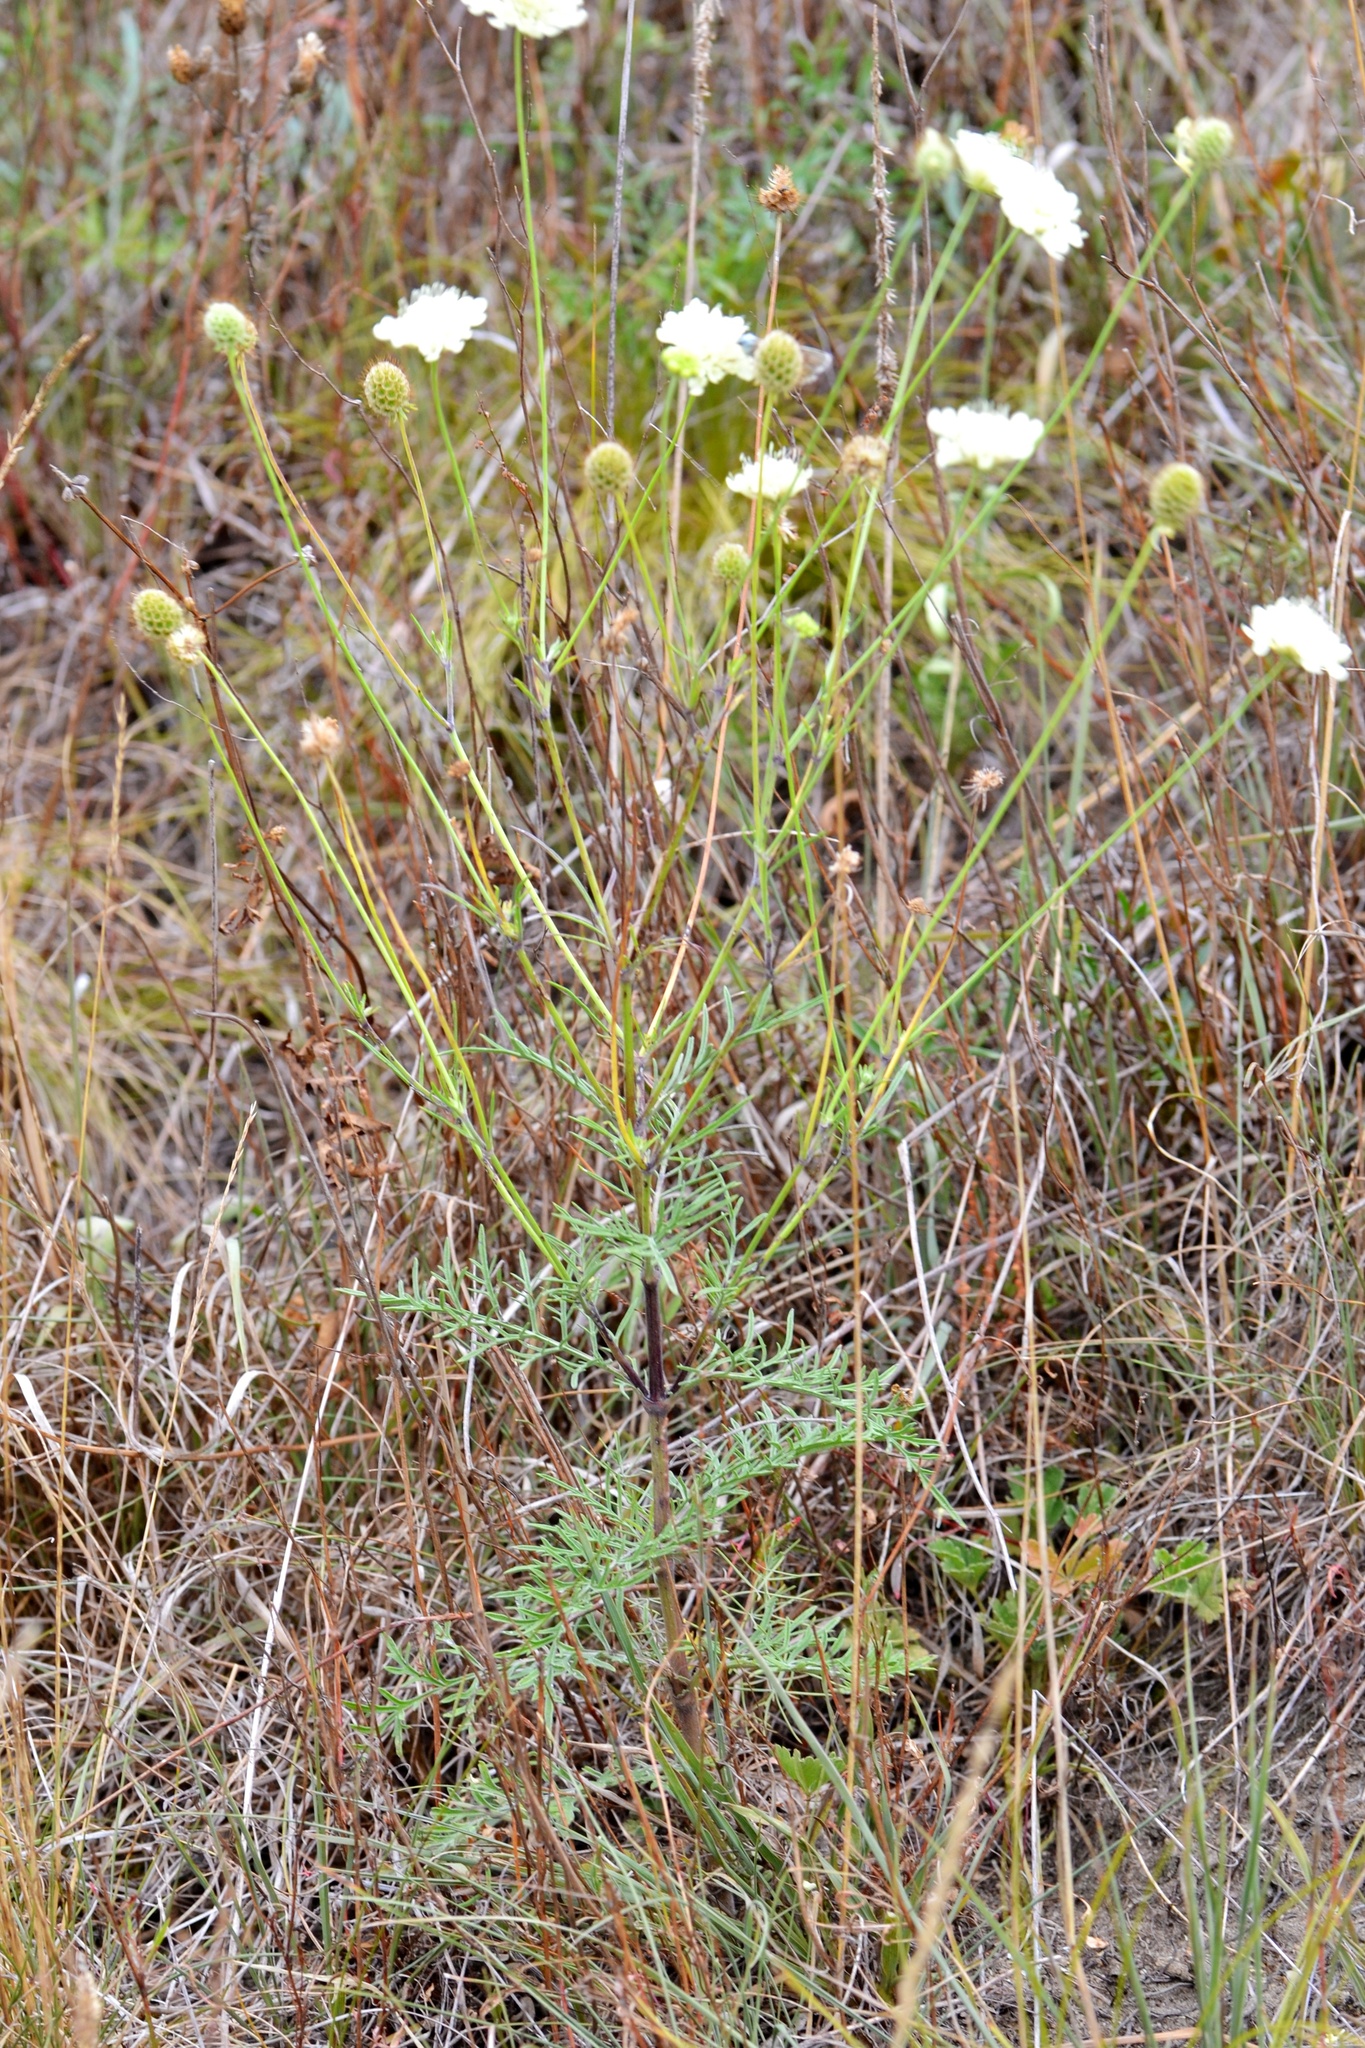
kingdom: Plantae
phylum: Tracheophyta
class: Magnoliopsida
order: Dipsacales
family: Caprifoliaceae
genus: Scabiosa
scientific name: Scabiosa ochroleuca
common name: Cream pincushions
